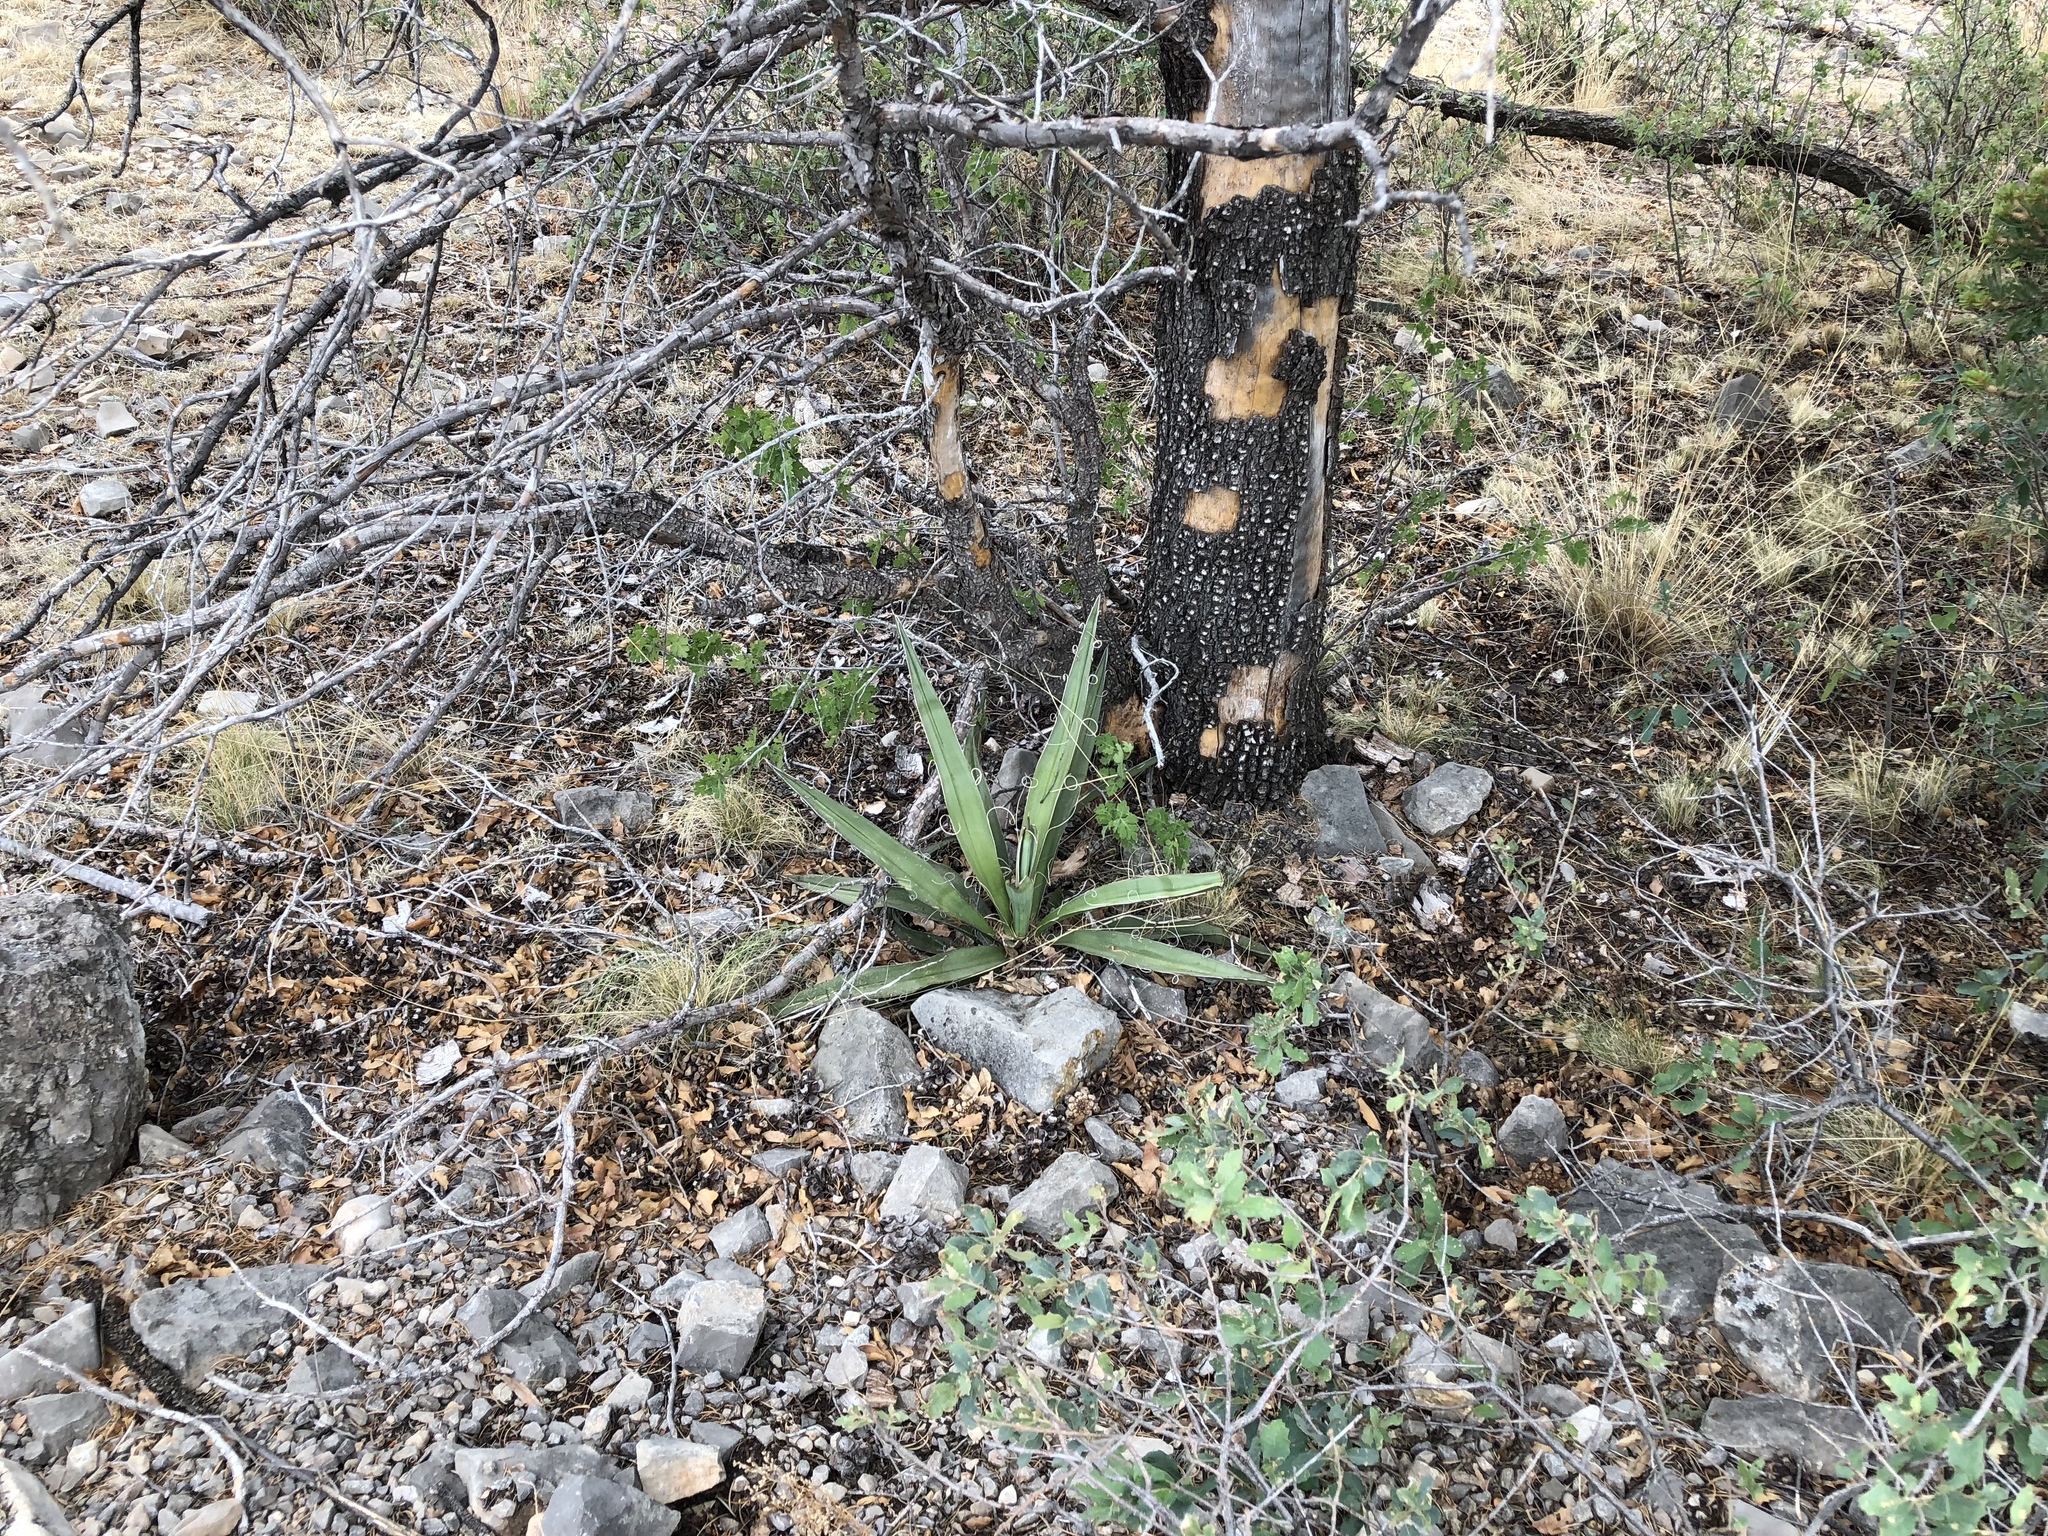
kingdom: Plantae
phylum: Tracheophyta
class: Liliopsida
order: Asparagales
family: Asparagaceae
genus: Yucca
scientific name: Yucca baccata
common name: Banana yucca
